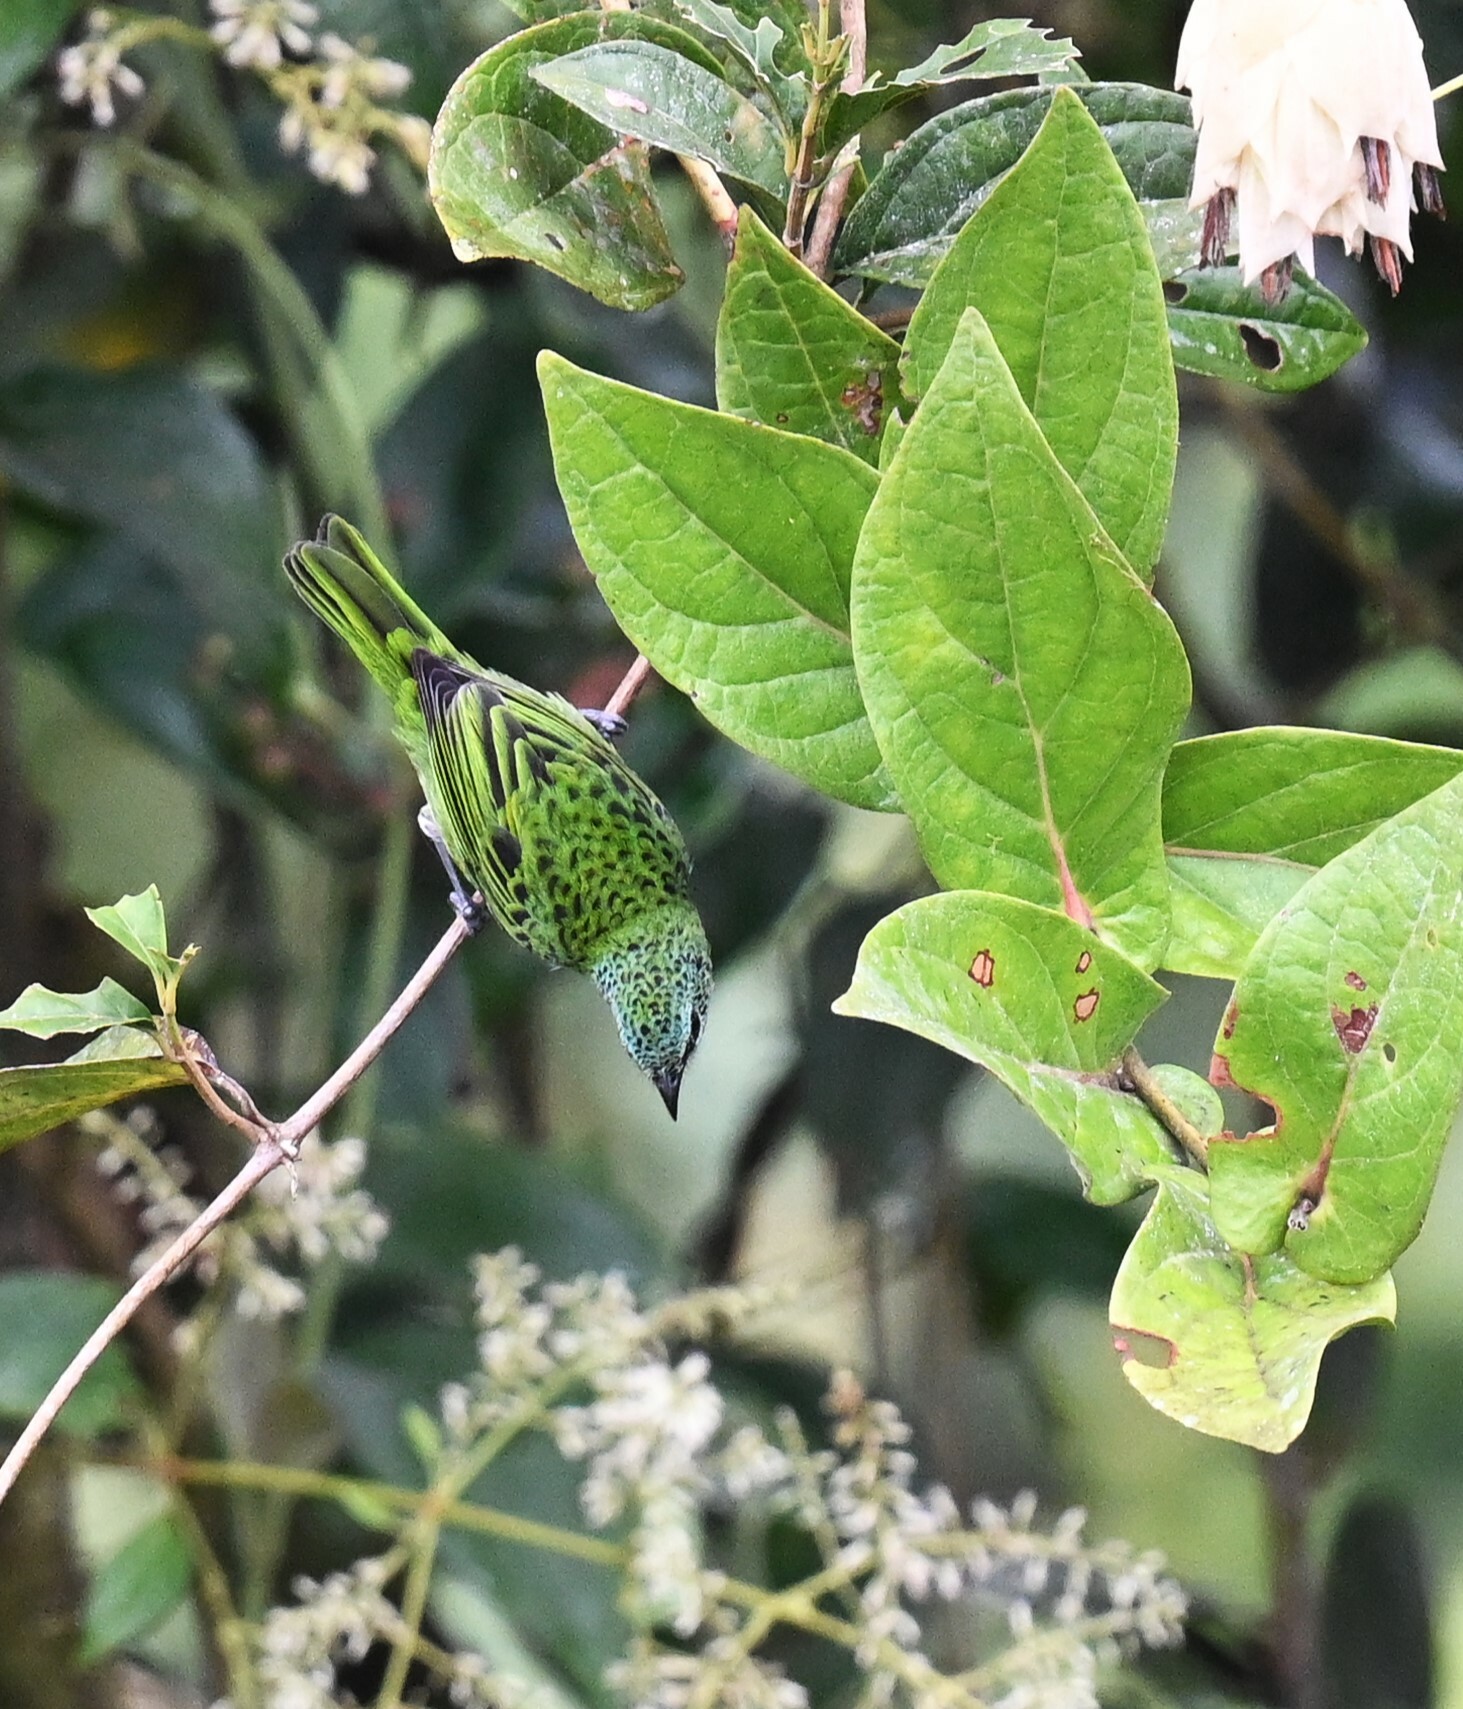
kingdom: Animalia
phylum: Chordata
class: Aves
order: Passeriformes
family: Thraupidae
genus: Ixothraupis
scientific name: Ixothraupis punctata
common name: Spotted tanager
